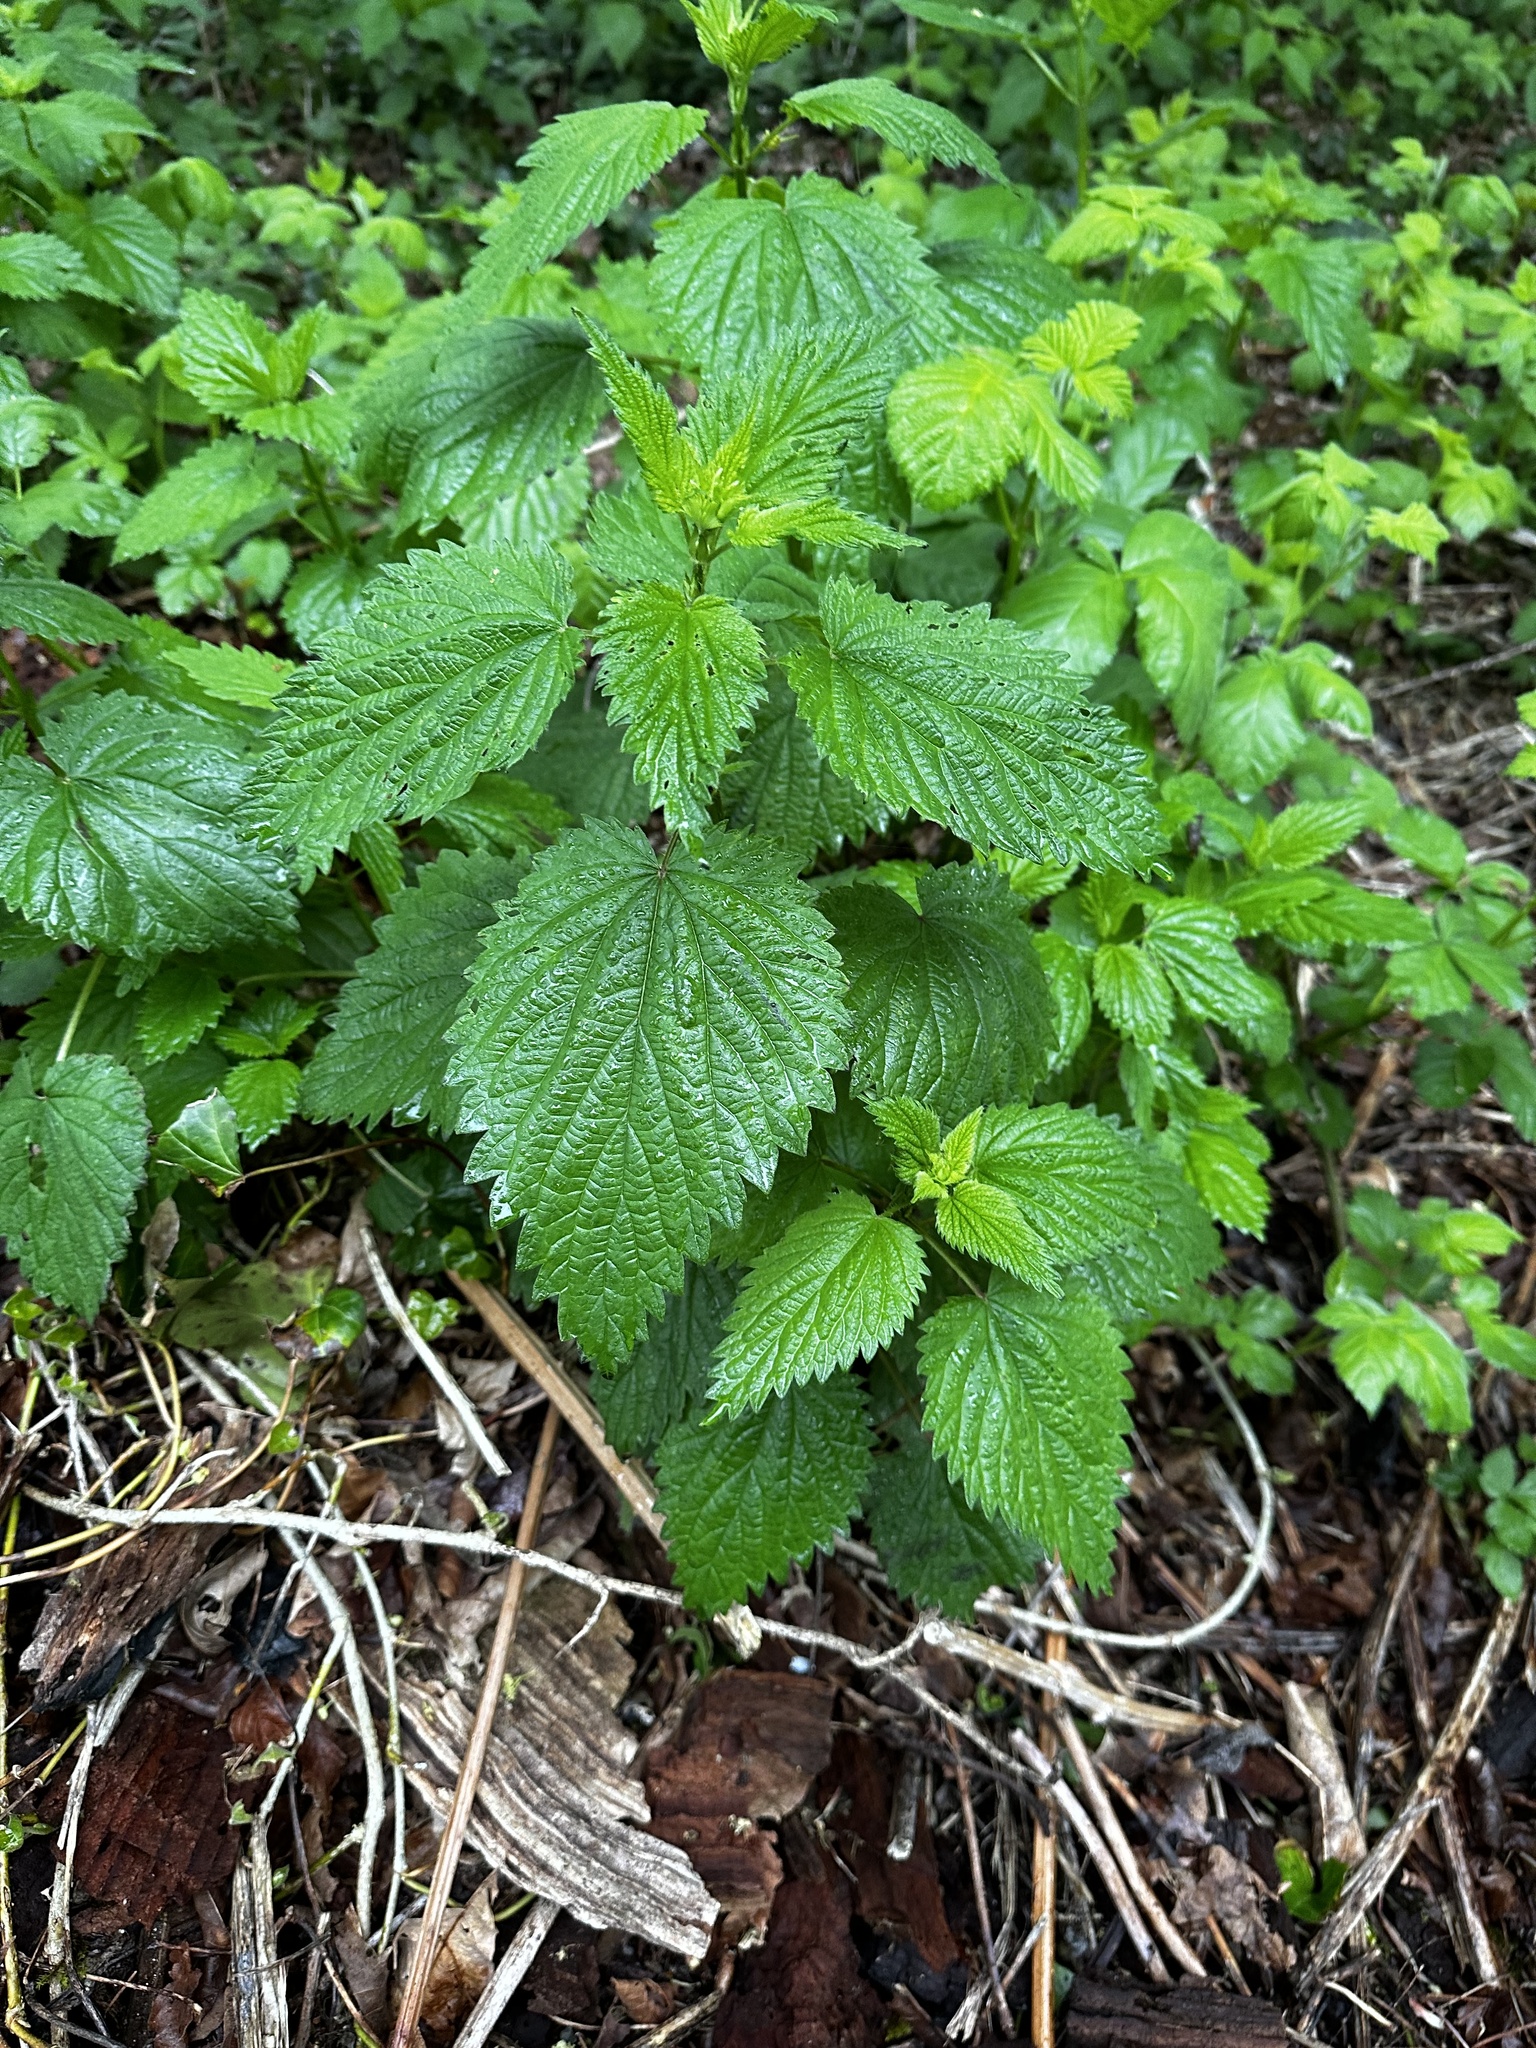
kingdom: Plantae
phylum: Tracheophyta
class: Magnoliopsida
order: Rosales
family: Urticaceae
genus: Urtica
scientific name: Urtica dioica
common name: Common nettle
